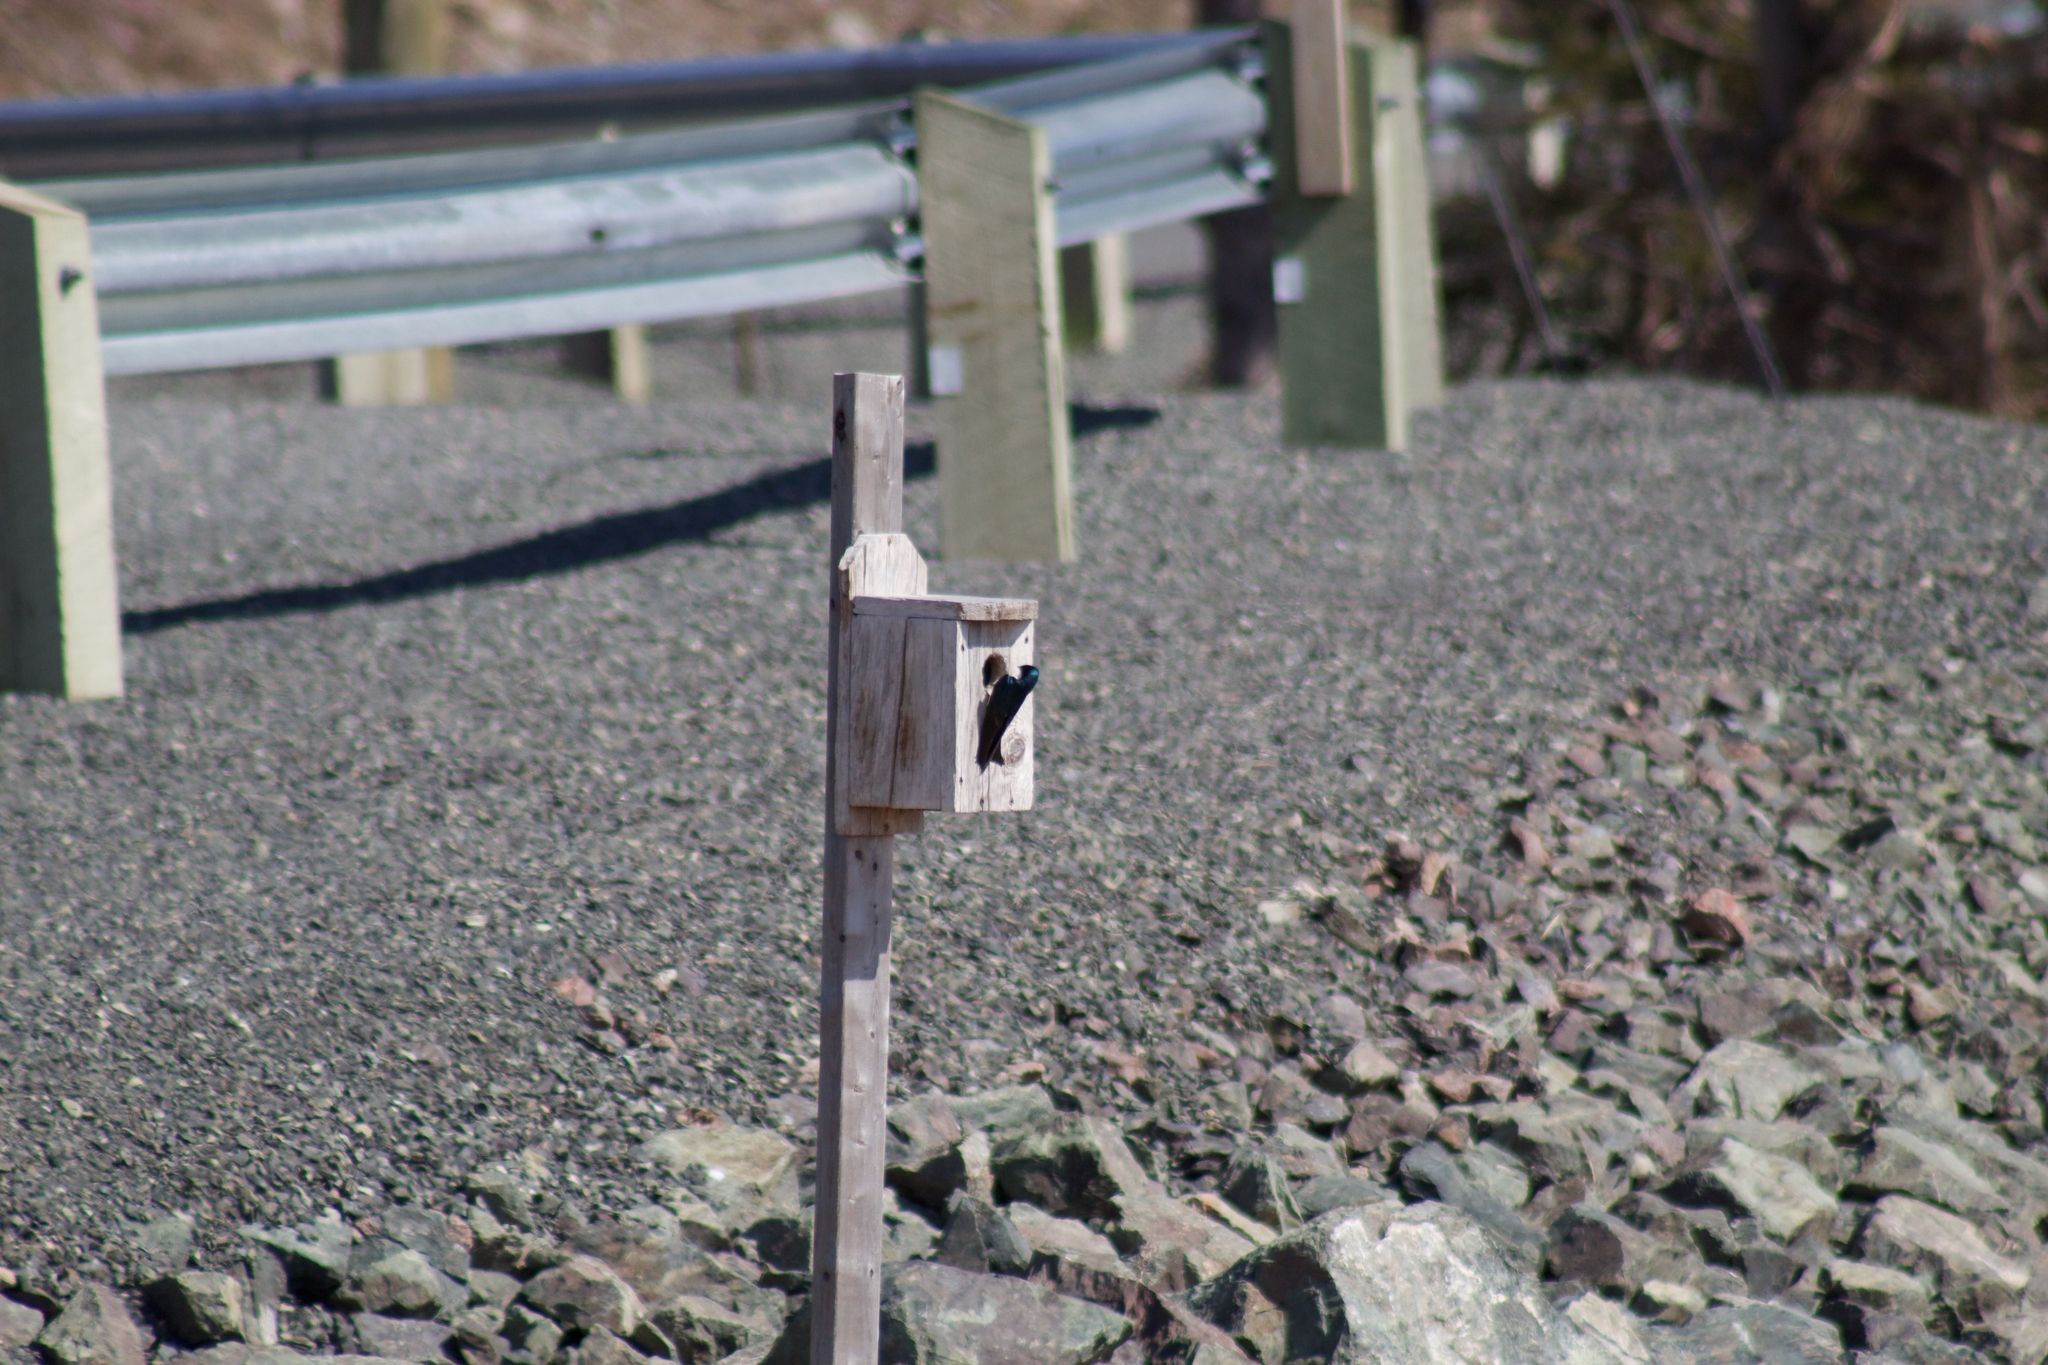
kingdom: Animalia
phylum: Chordata
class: Aves
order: Passeriformes
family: Hirundinidae
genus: Tachycineta
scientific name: Tachycineta bicolor
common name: Tree swallow
